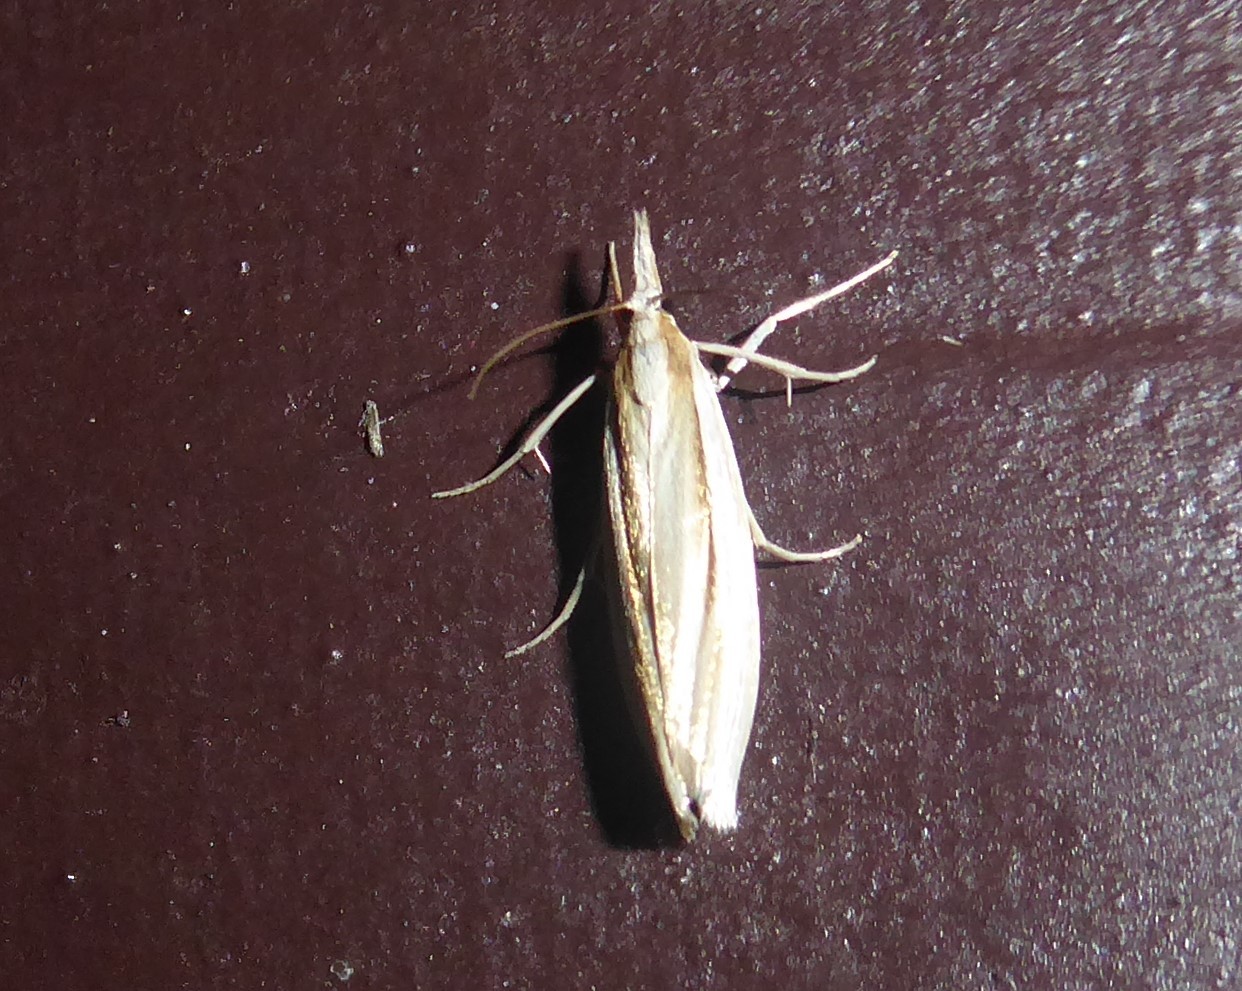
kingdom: Animalia
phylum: Arthropoda
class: Insecta
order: Lepidoptera
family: Crambidae
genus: Orocrambus
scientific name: Orocrambus ramosellus
